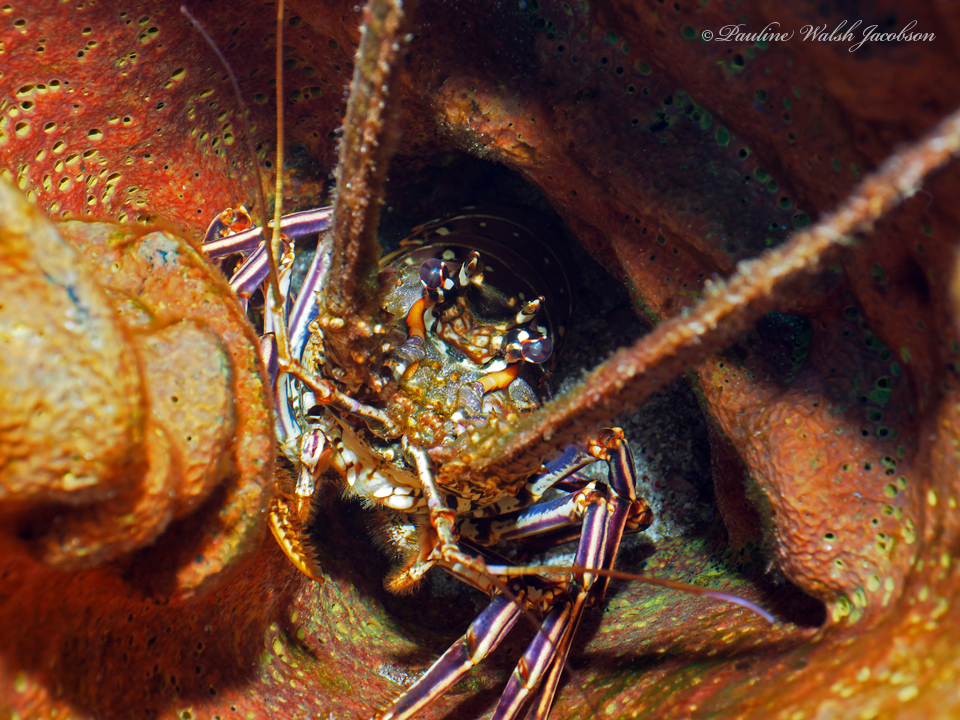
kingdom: Animalia
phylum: Arthropoda
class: Malacostraca
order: Decapoda
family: Palinuridae
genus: Panulirus
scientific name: Panulirus argus
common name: Caribbean spiny lobster
